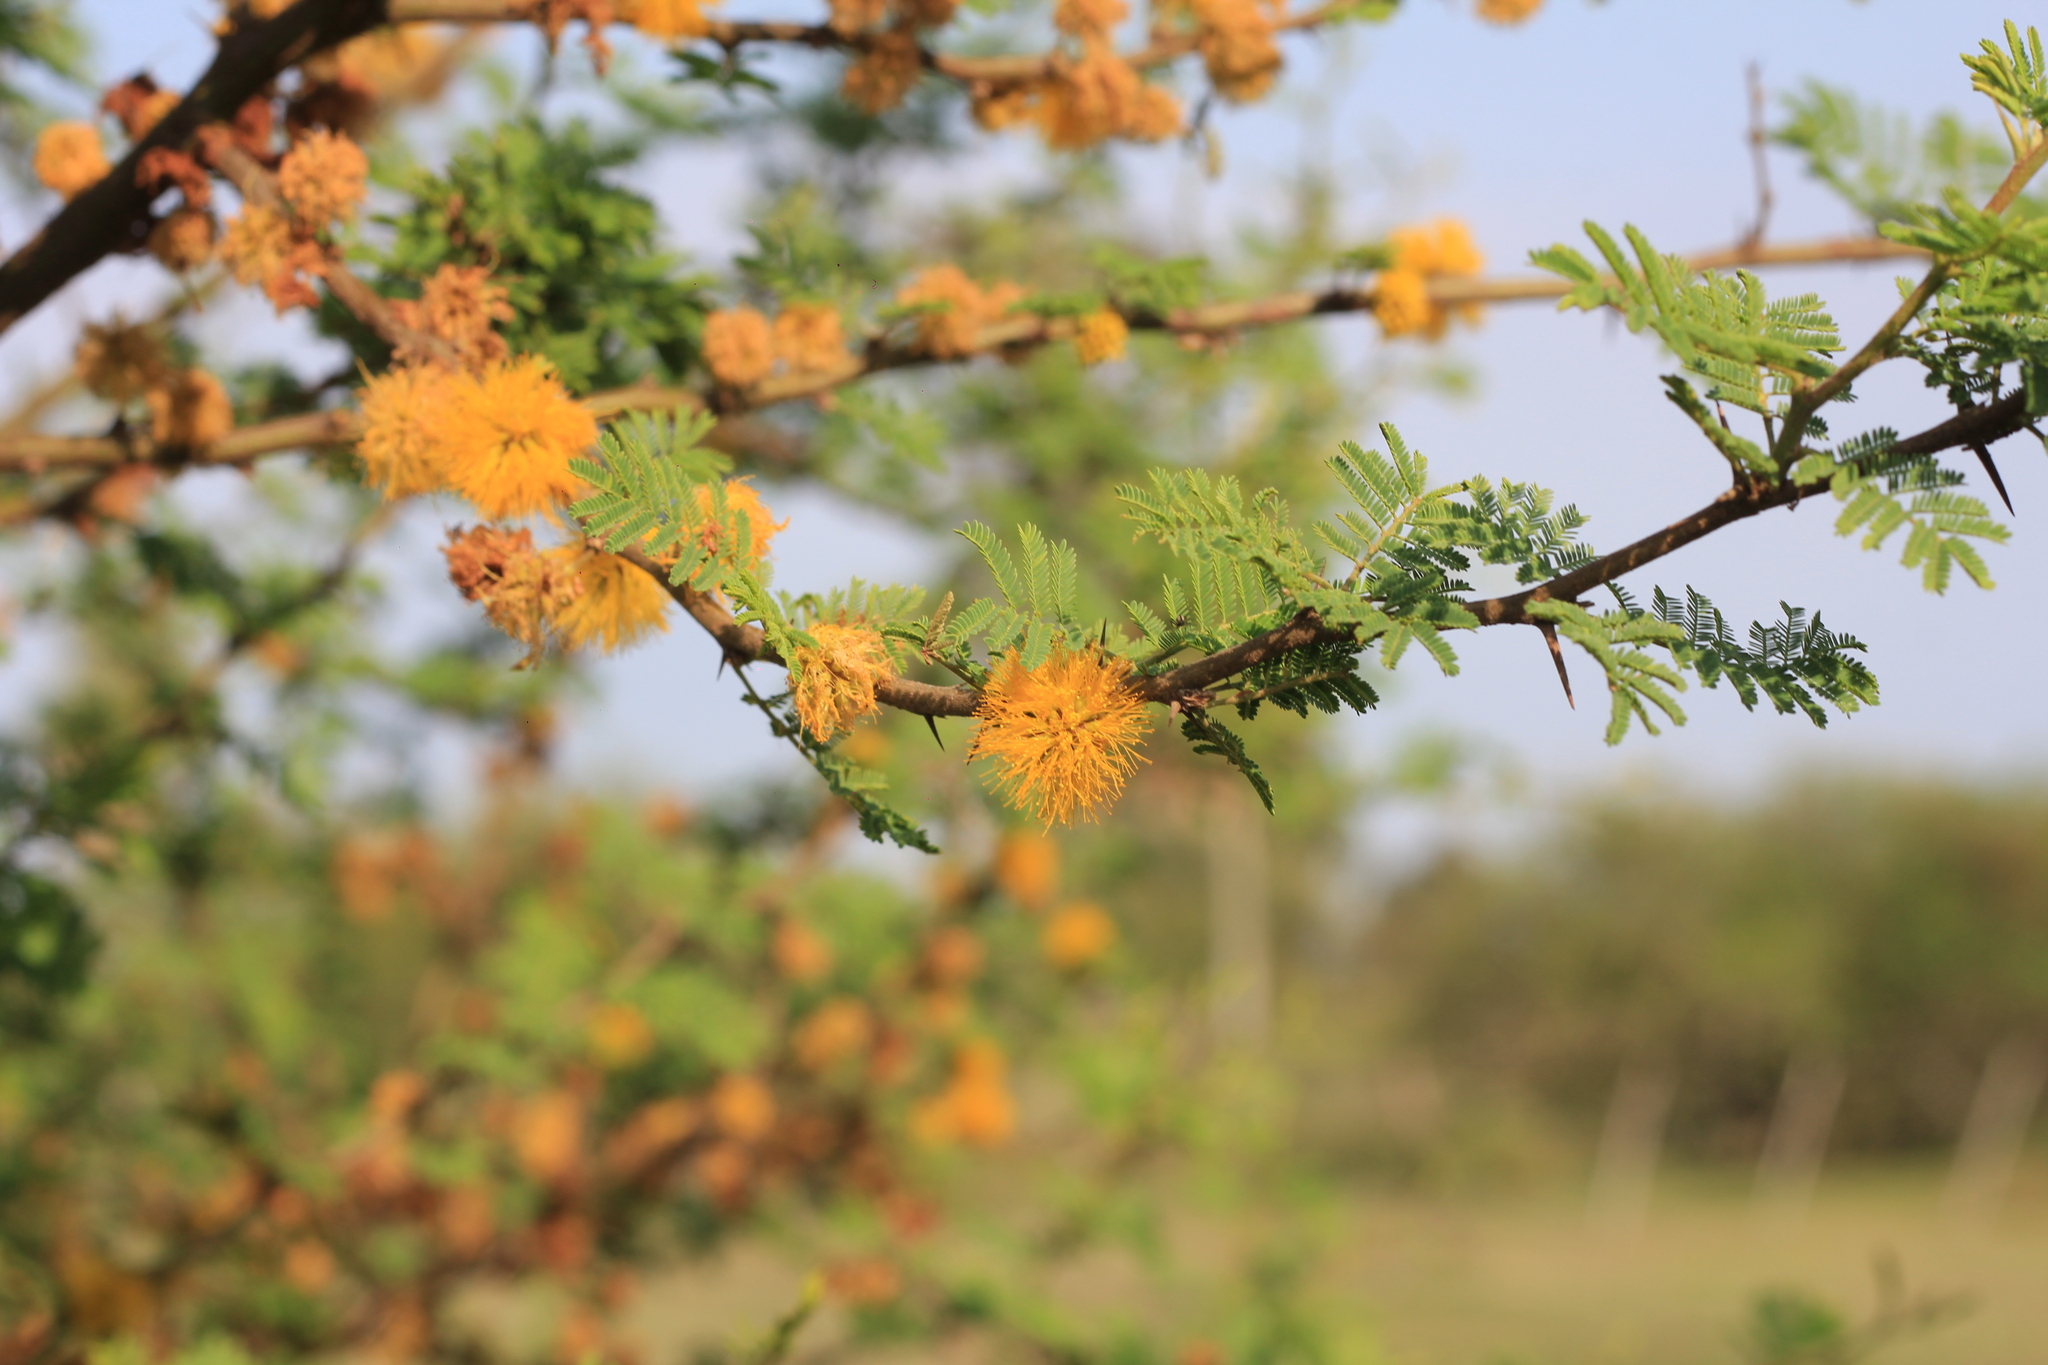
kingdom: Plantae
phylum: Tracheophyta
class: Magnoliopsida
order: Fabales
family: Fabaceae
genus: Vachellia
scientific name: Vachellia caven
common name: Roman cassie
